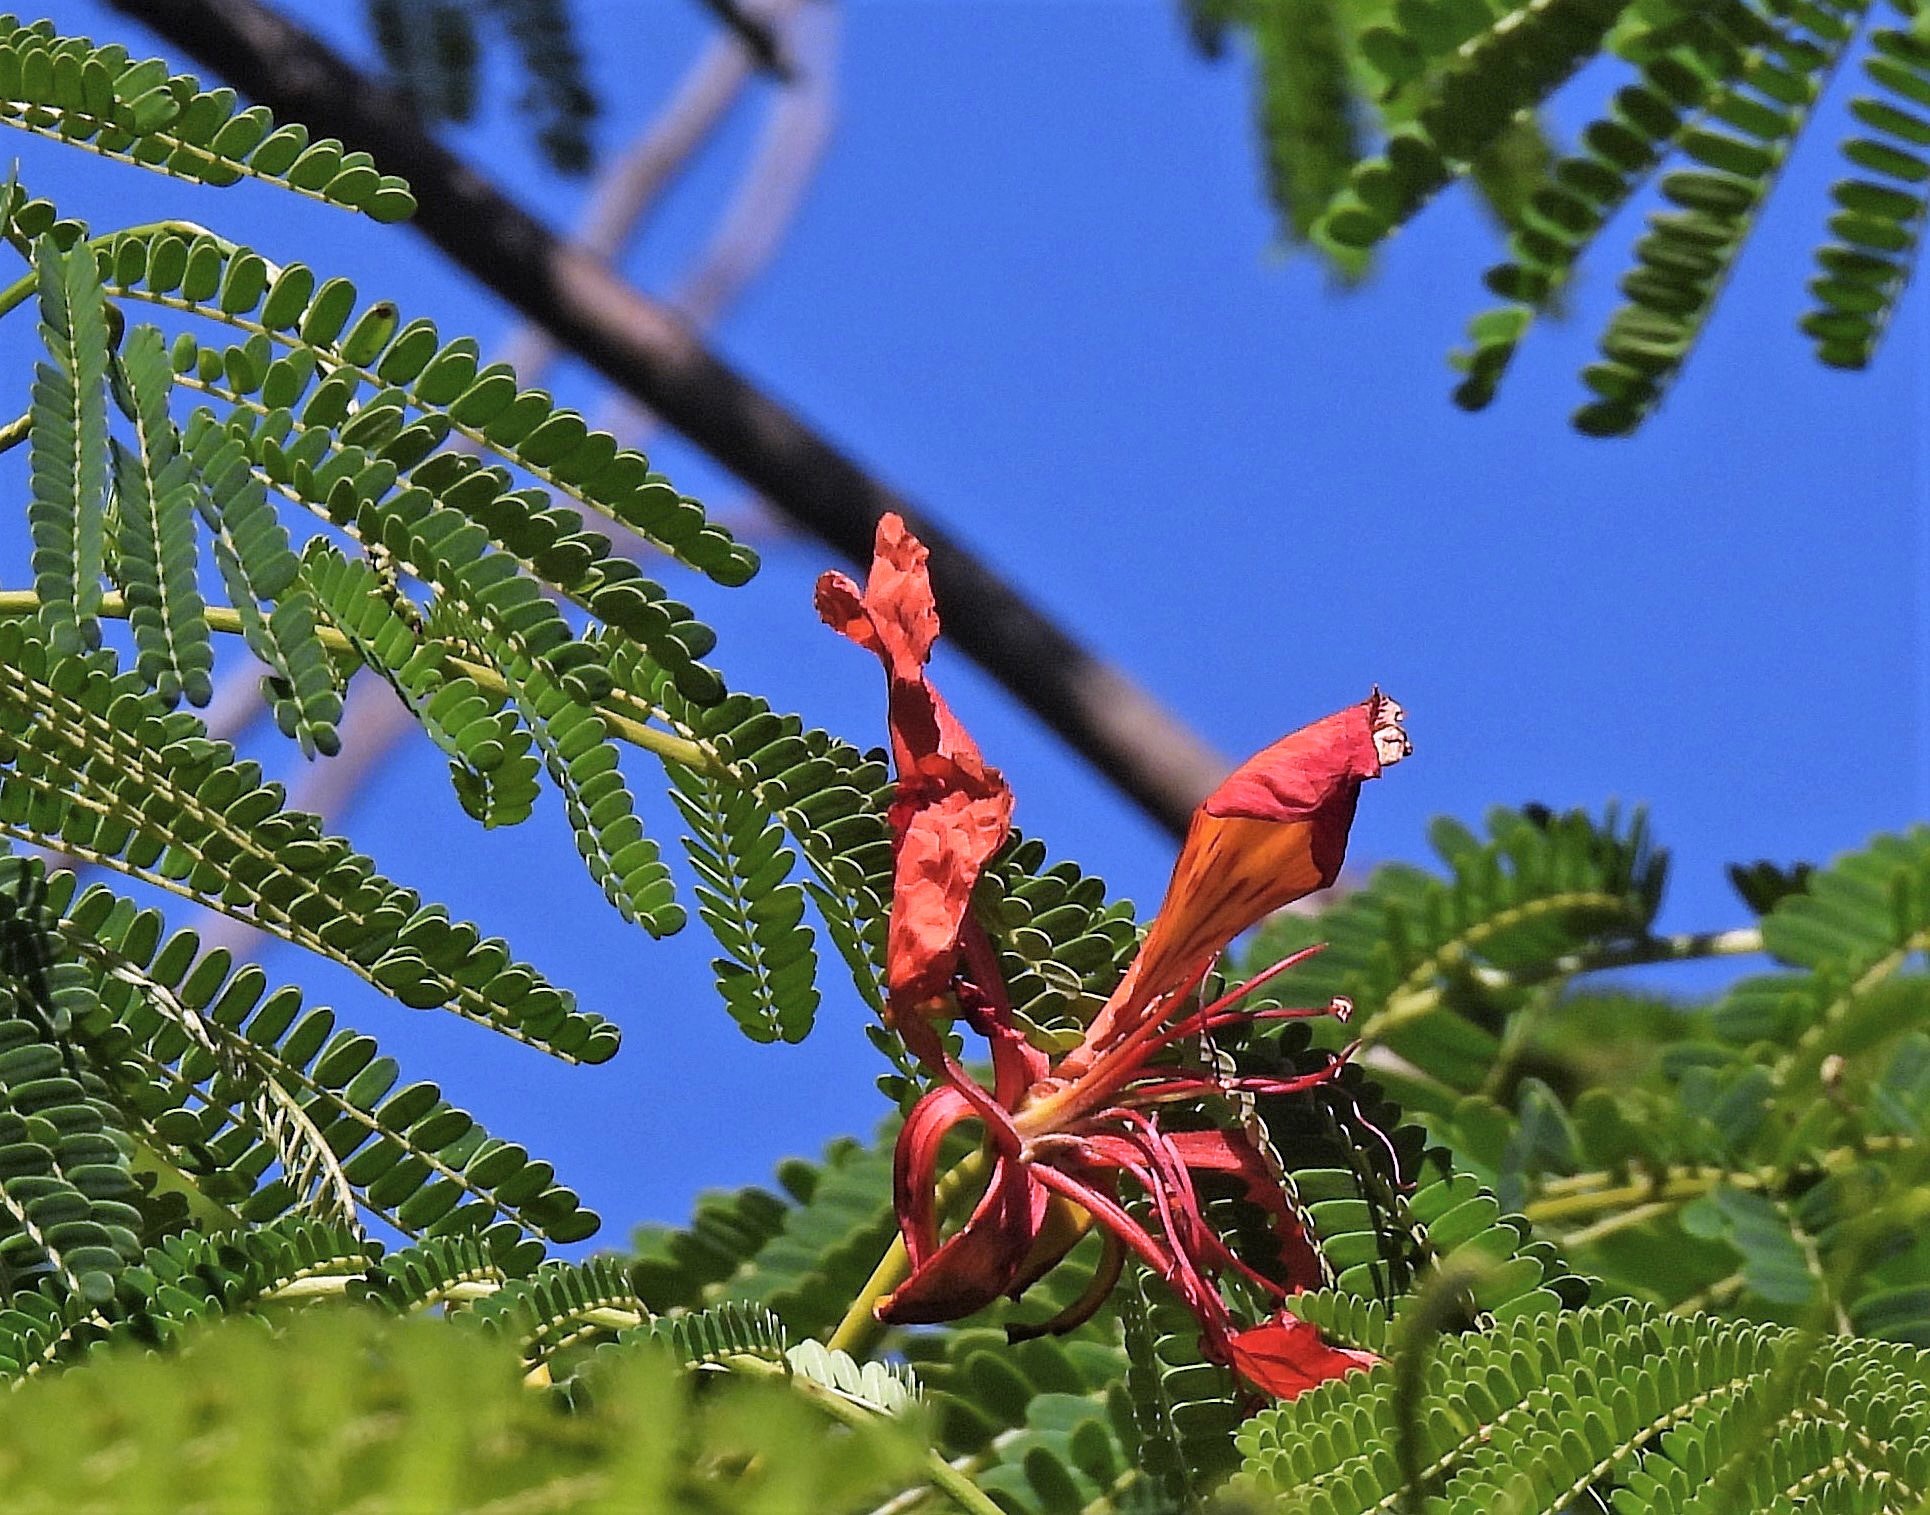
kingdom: Plantae
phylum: Tracheophyta
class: Magnoliopsida
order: Fabales
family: Fabaceae
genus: Delonix
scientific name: Delonix regia
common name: Royal poinciana
